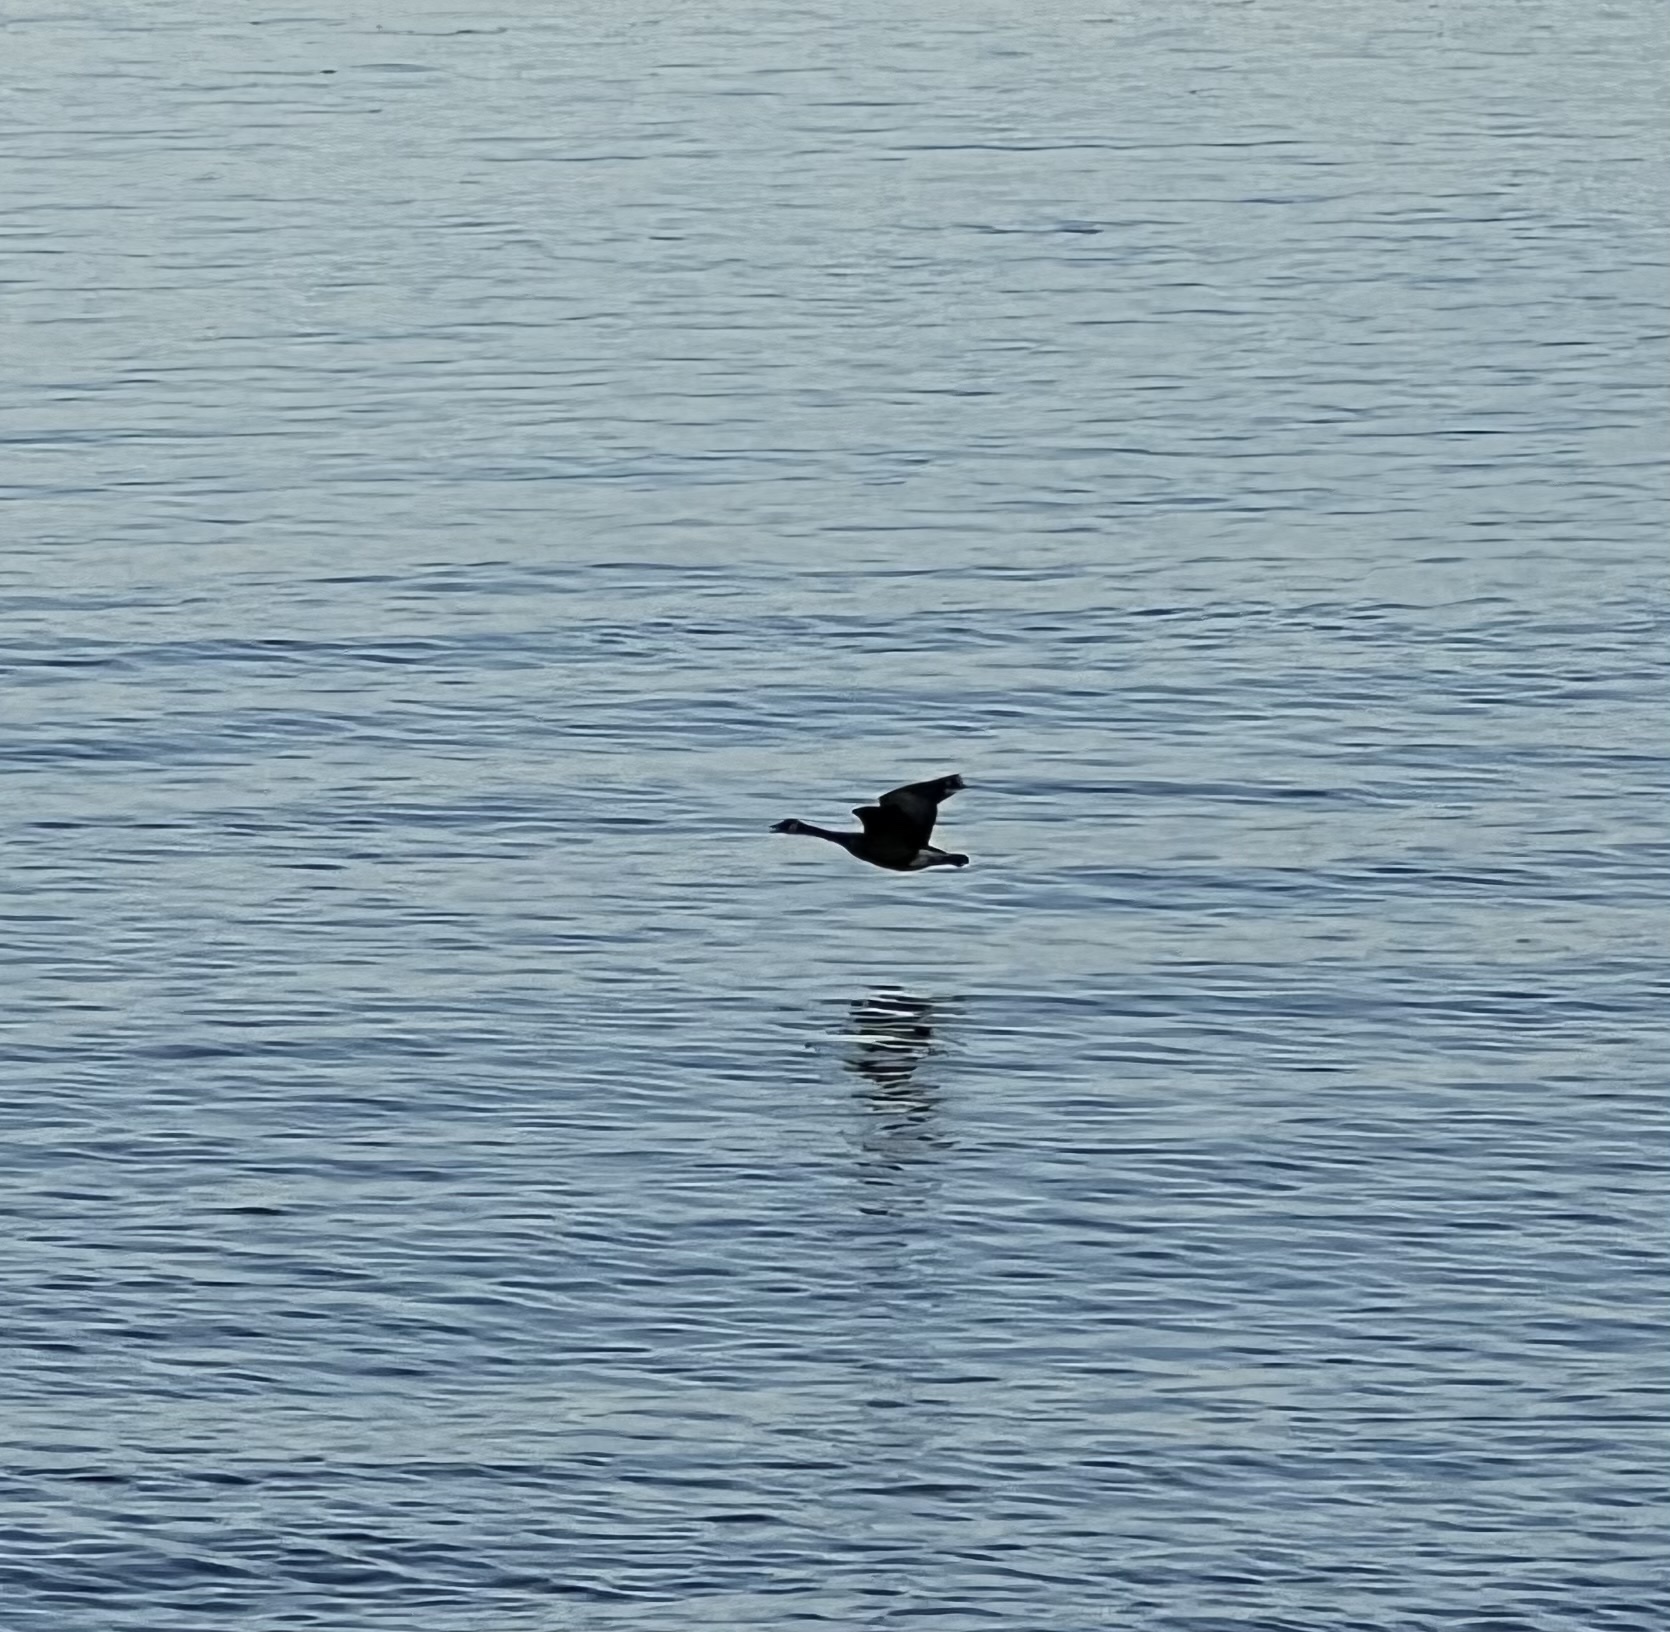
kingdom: Animalia
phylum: Chordata
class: Aves
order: Anseriformes
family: Anatidae
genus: Branta
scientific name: Branta canadensis
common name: Canada goose
